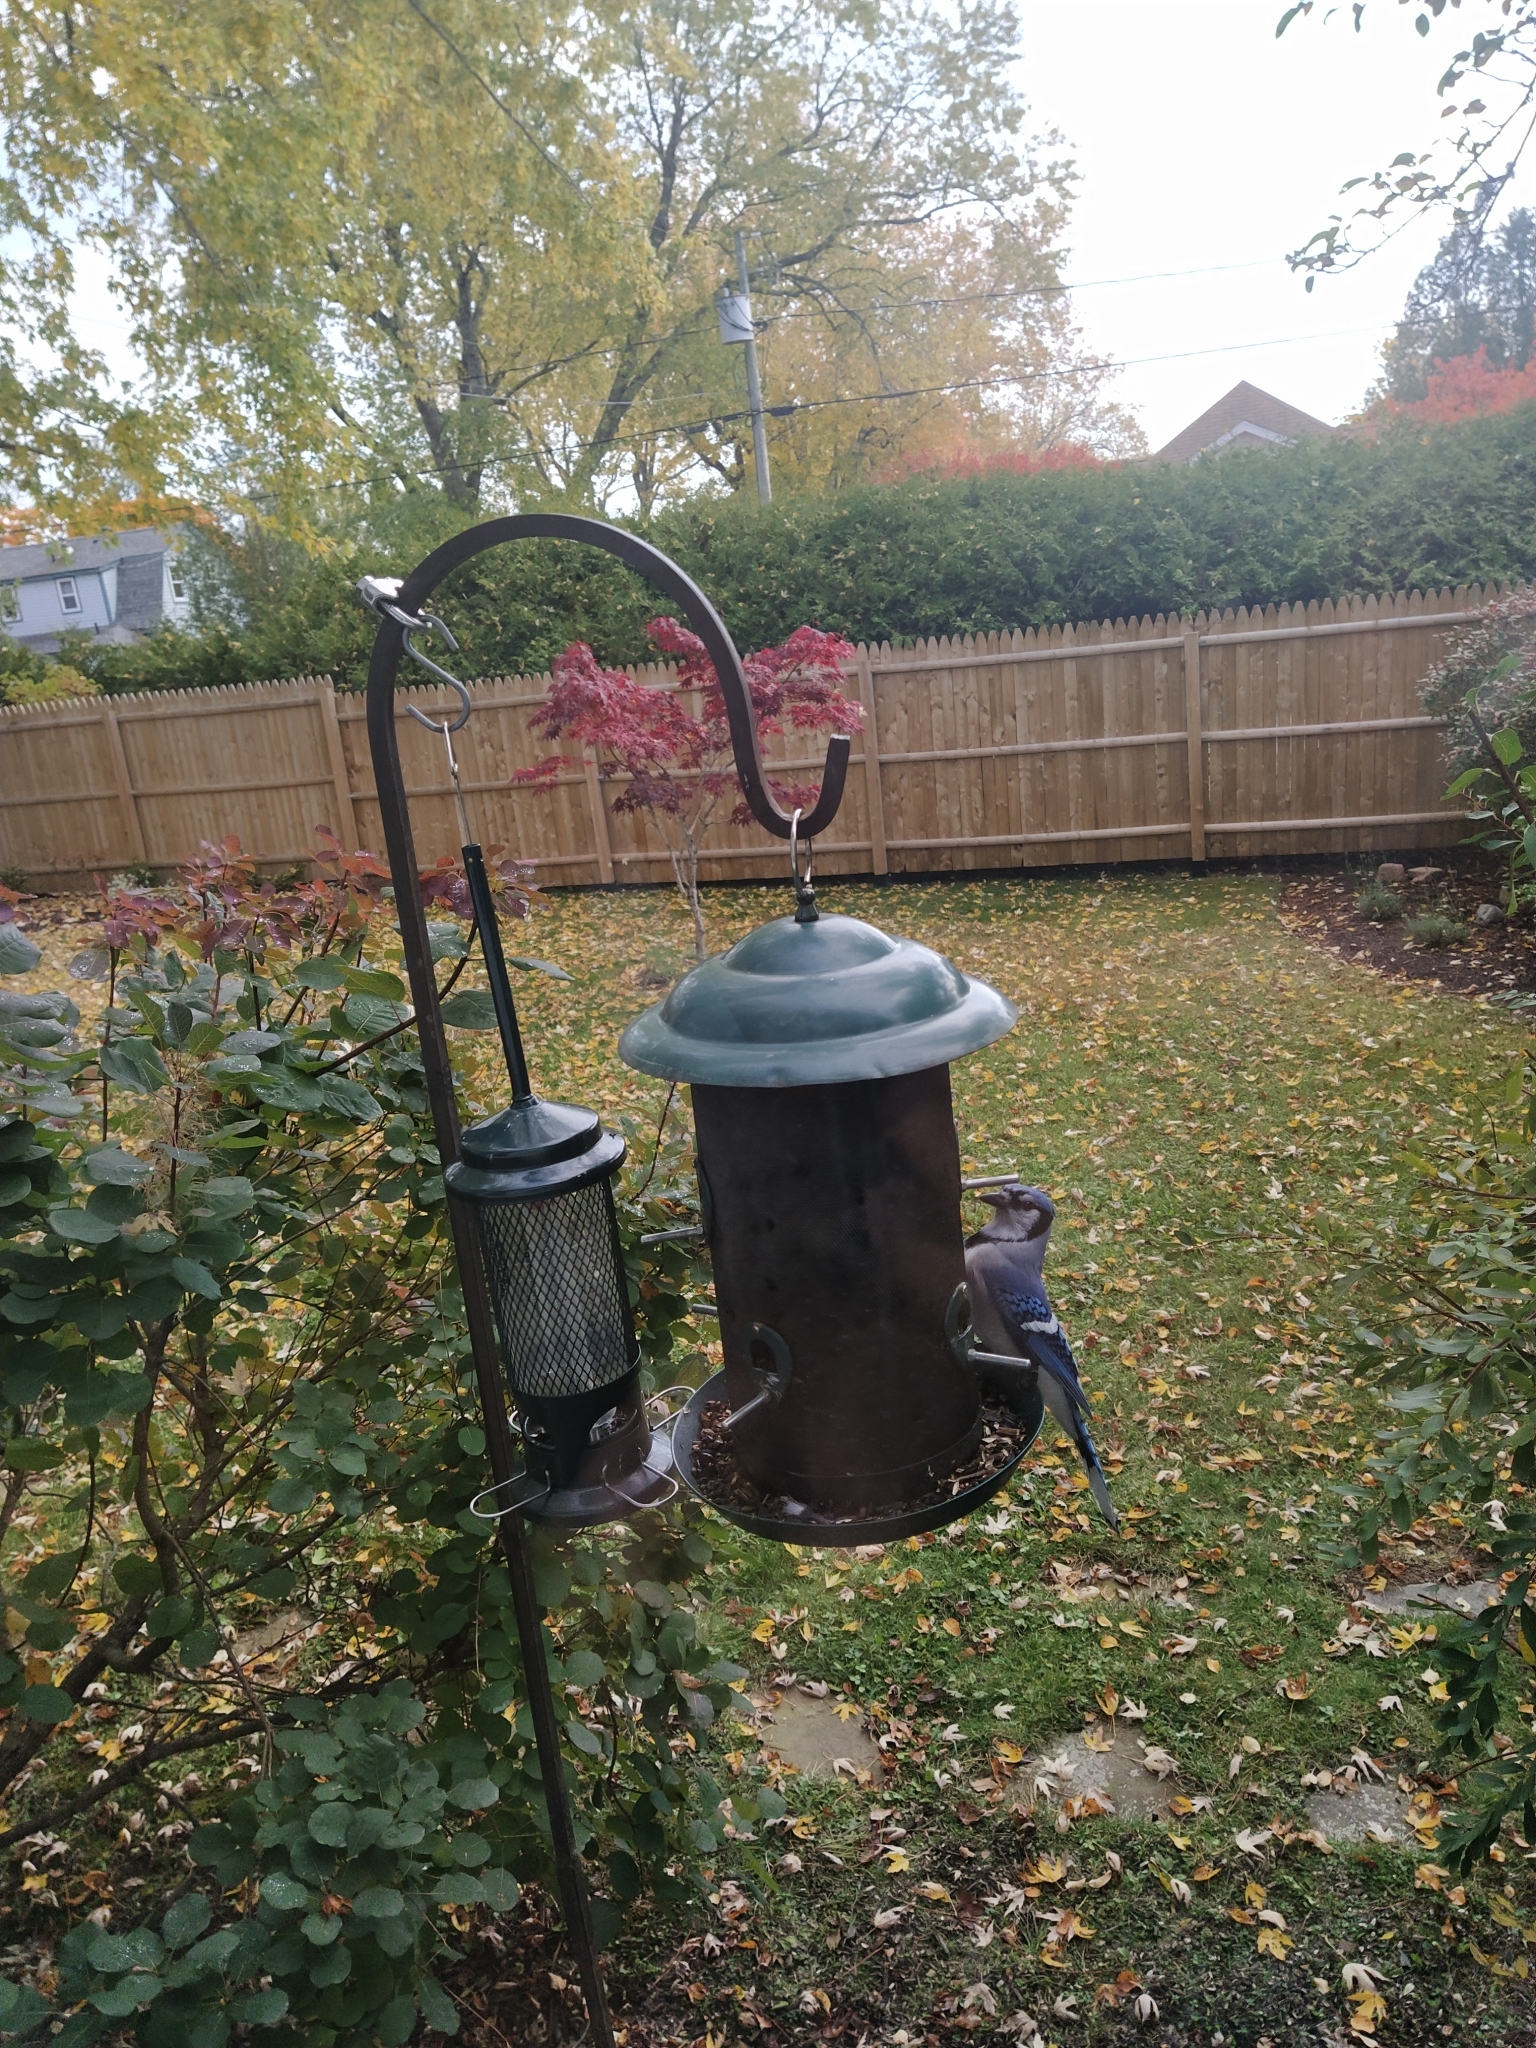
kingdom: Animalia
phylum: Chordata
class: Aves
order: Passeriformes
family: Corvidae
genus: Cyanocitta
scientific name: Cyanocitta cristata
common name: Blue jay
